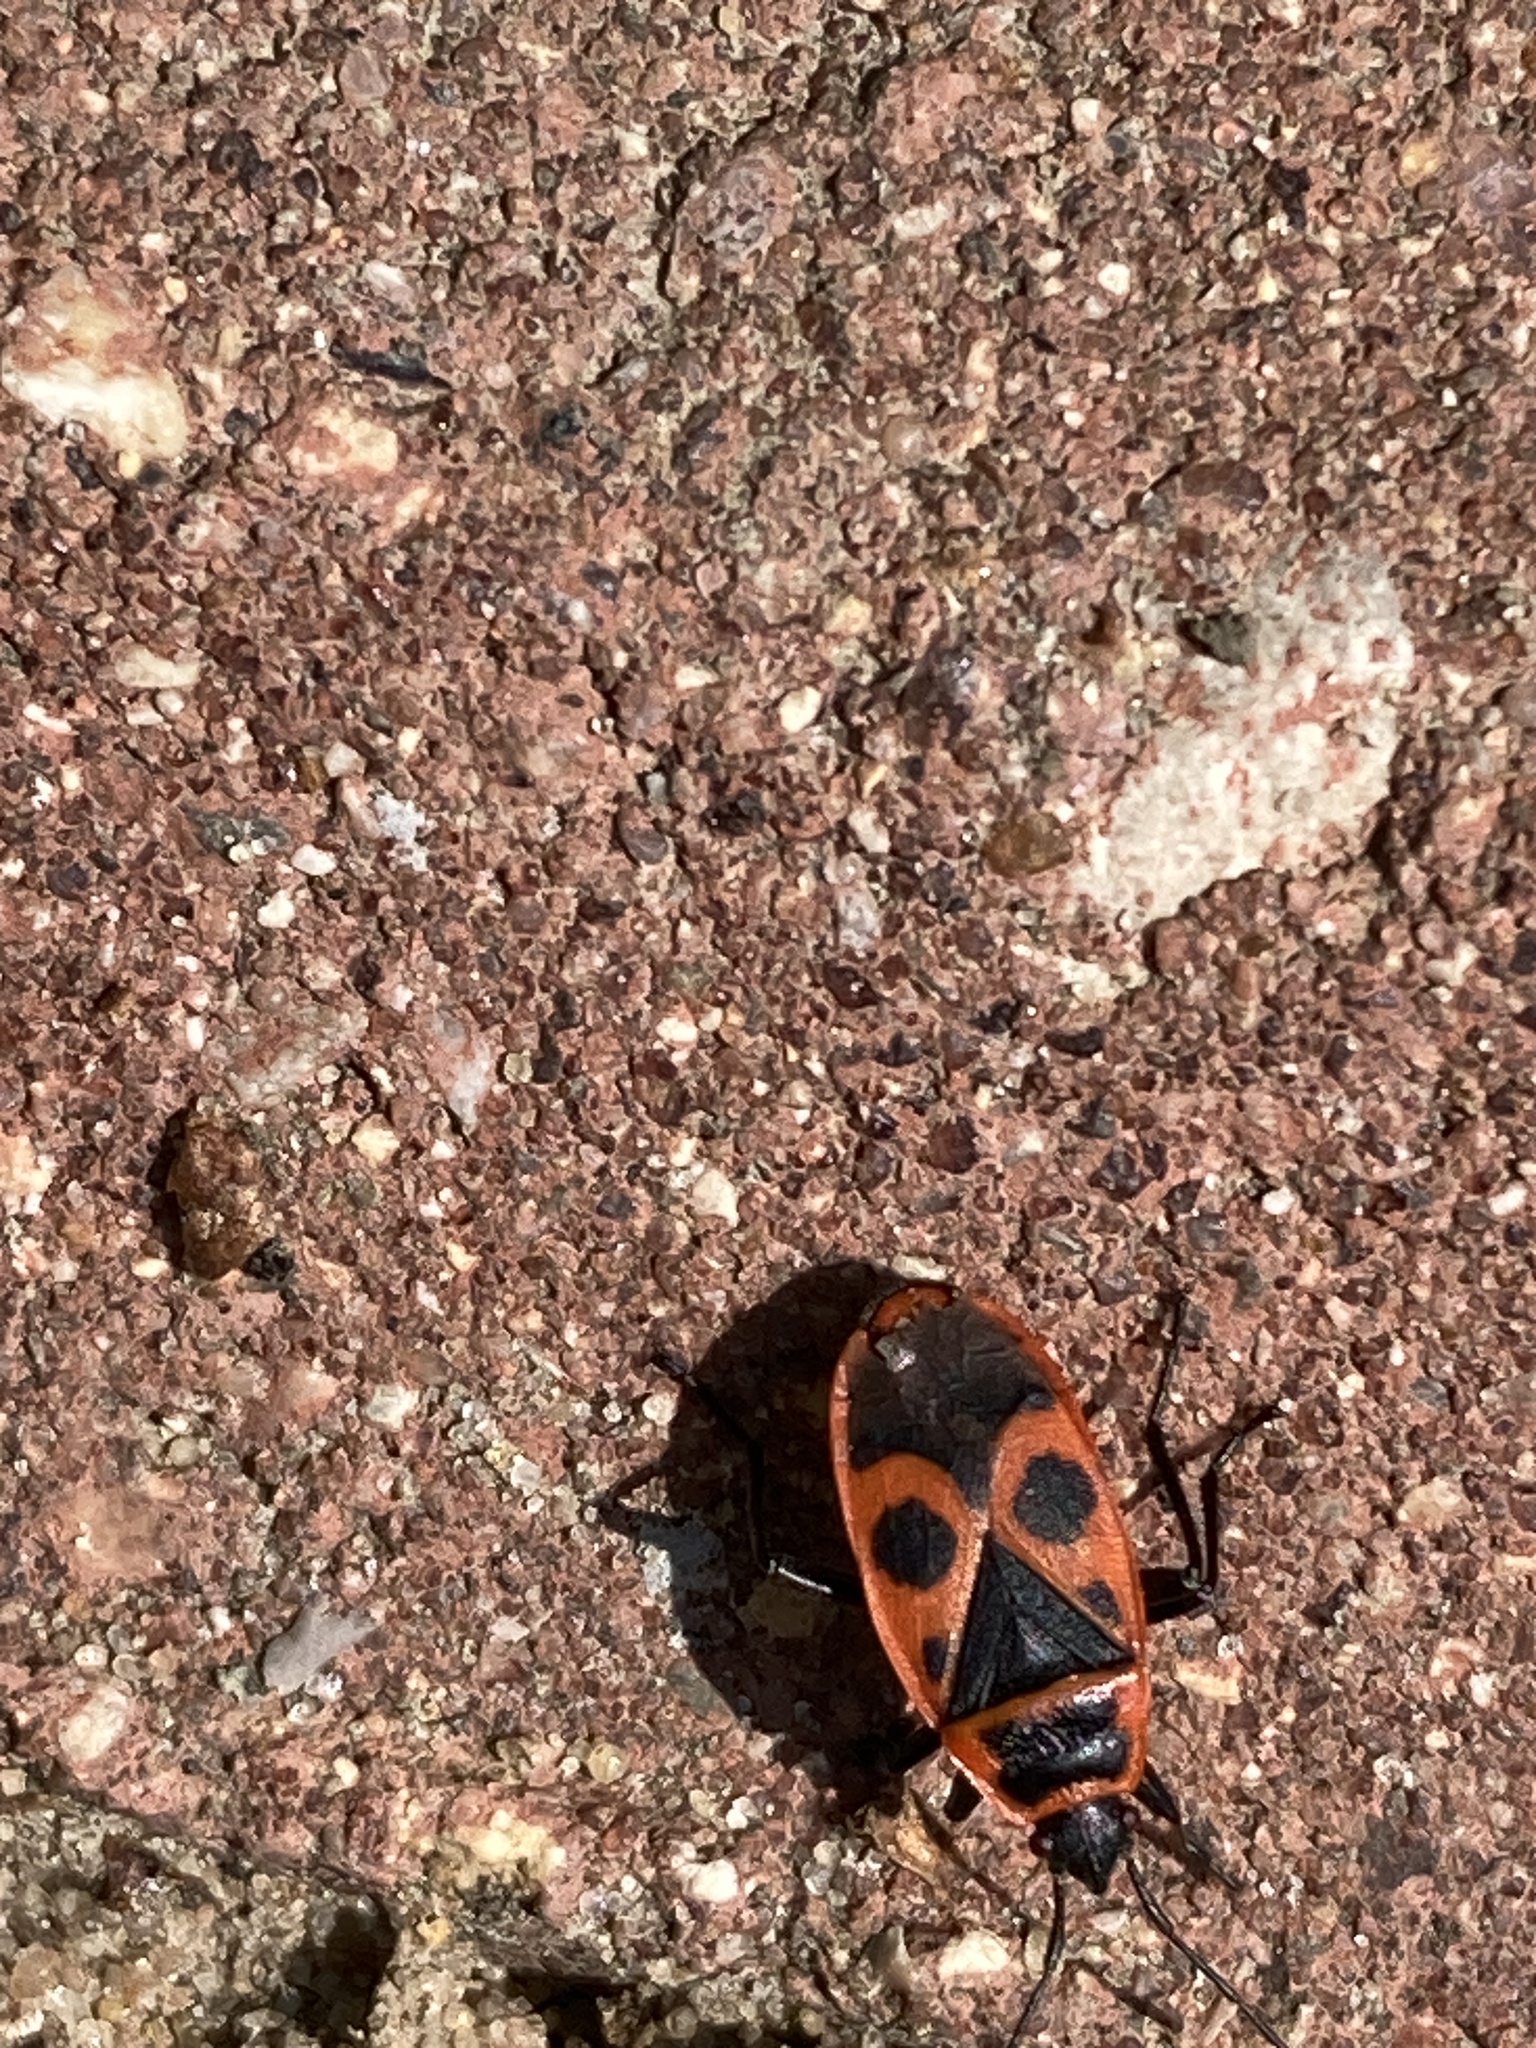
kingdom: Animalia
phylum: Arthropoda
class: Insecta
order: Hemiptera
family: Pyrrhocoridae
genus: Pyrrhocoris
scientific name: Pyrrhocoris apterus
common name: Firebug
